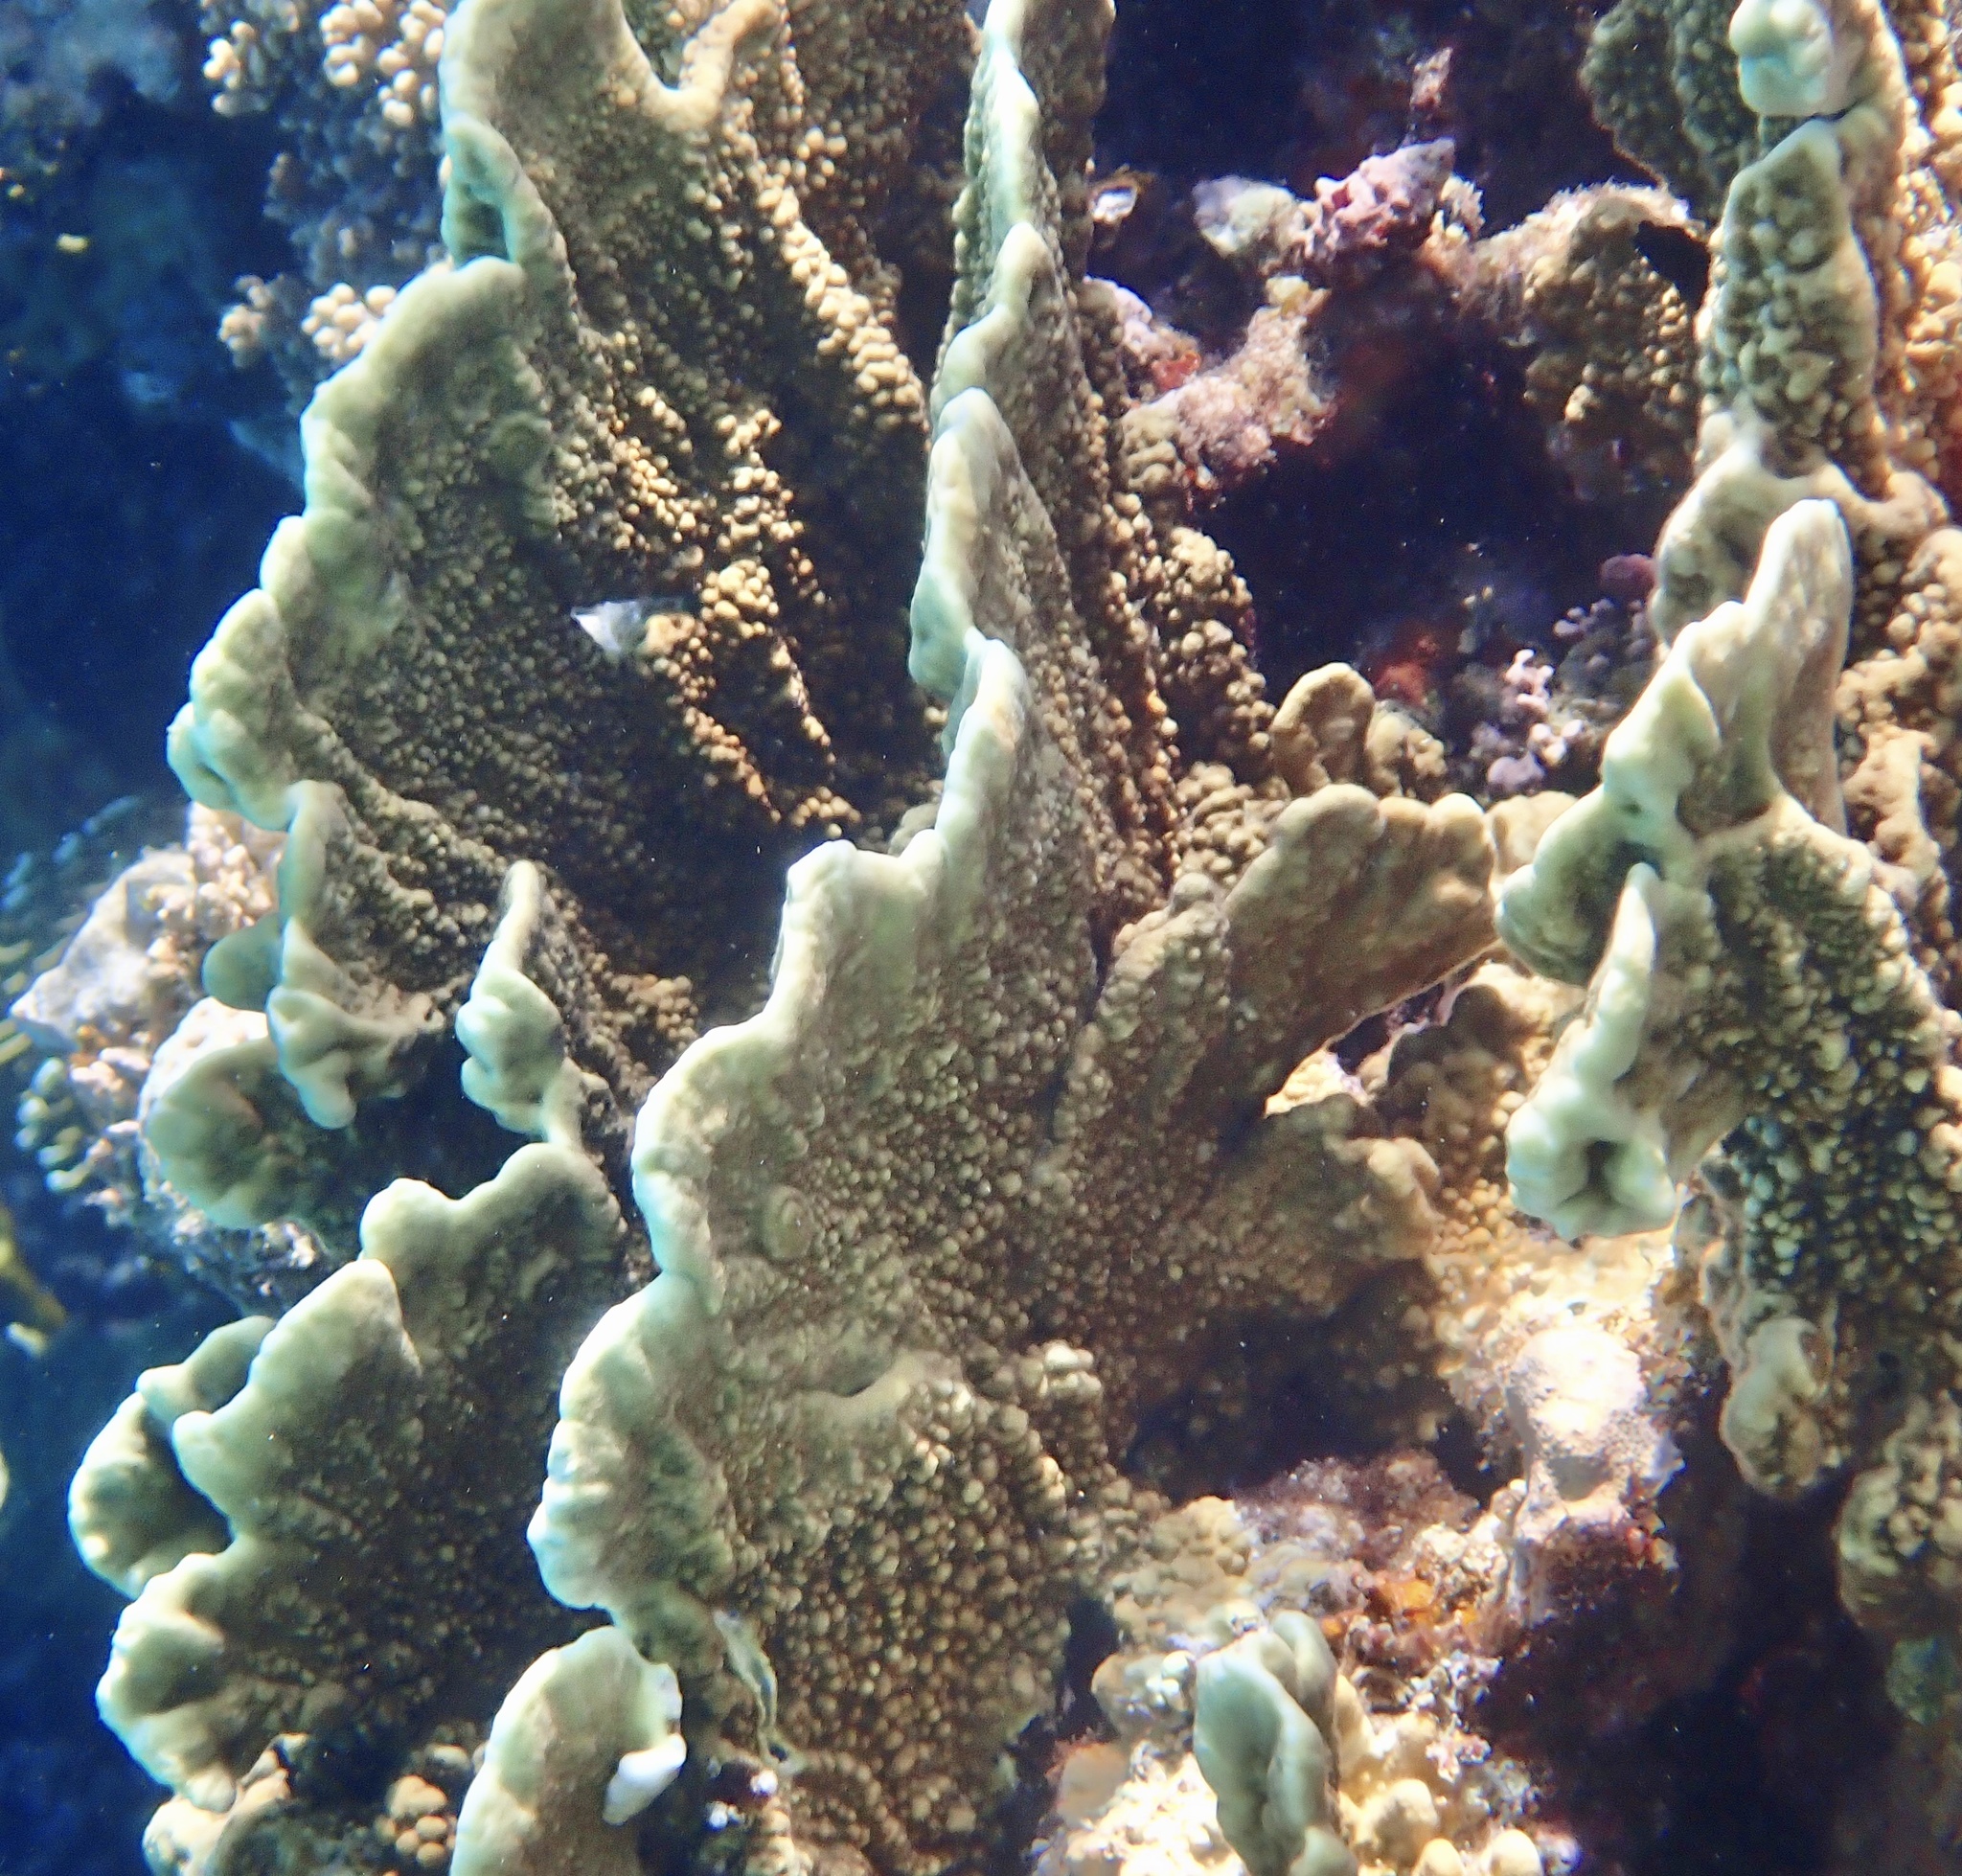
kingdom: Animalia
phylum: Cnidaria
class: Hydrozoa
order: Anthoathecata
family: Milleporidae
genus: Millepora
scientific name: Millepora platyphylla
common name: Sheet fire coral
